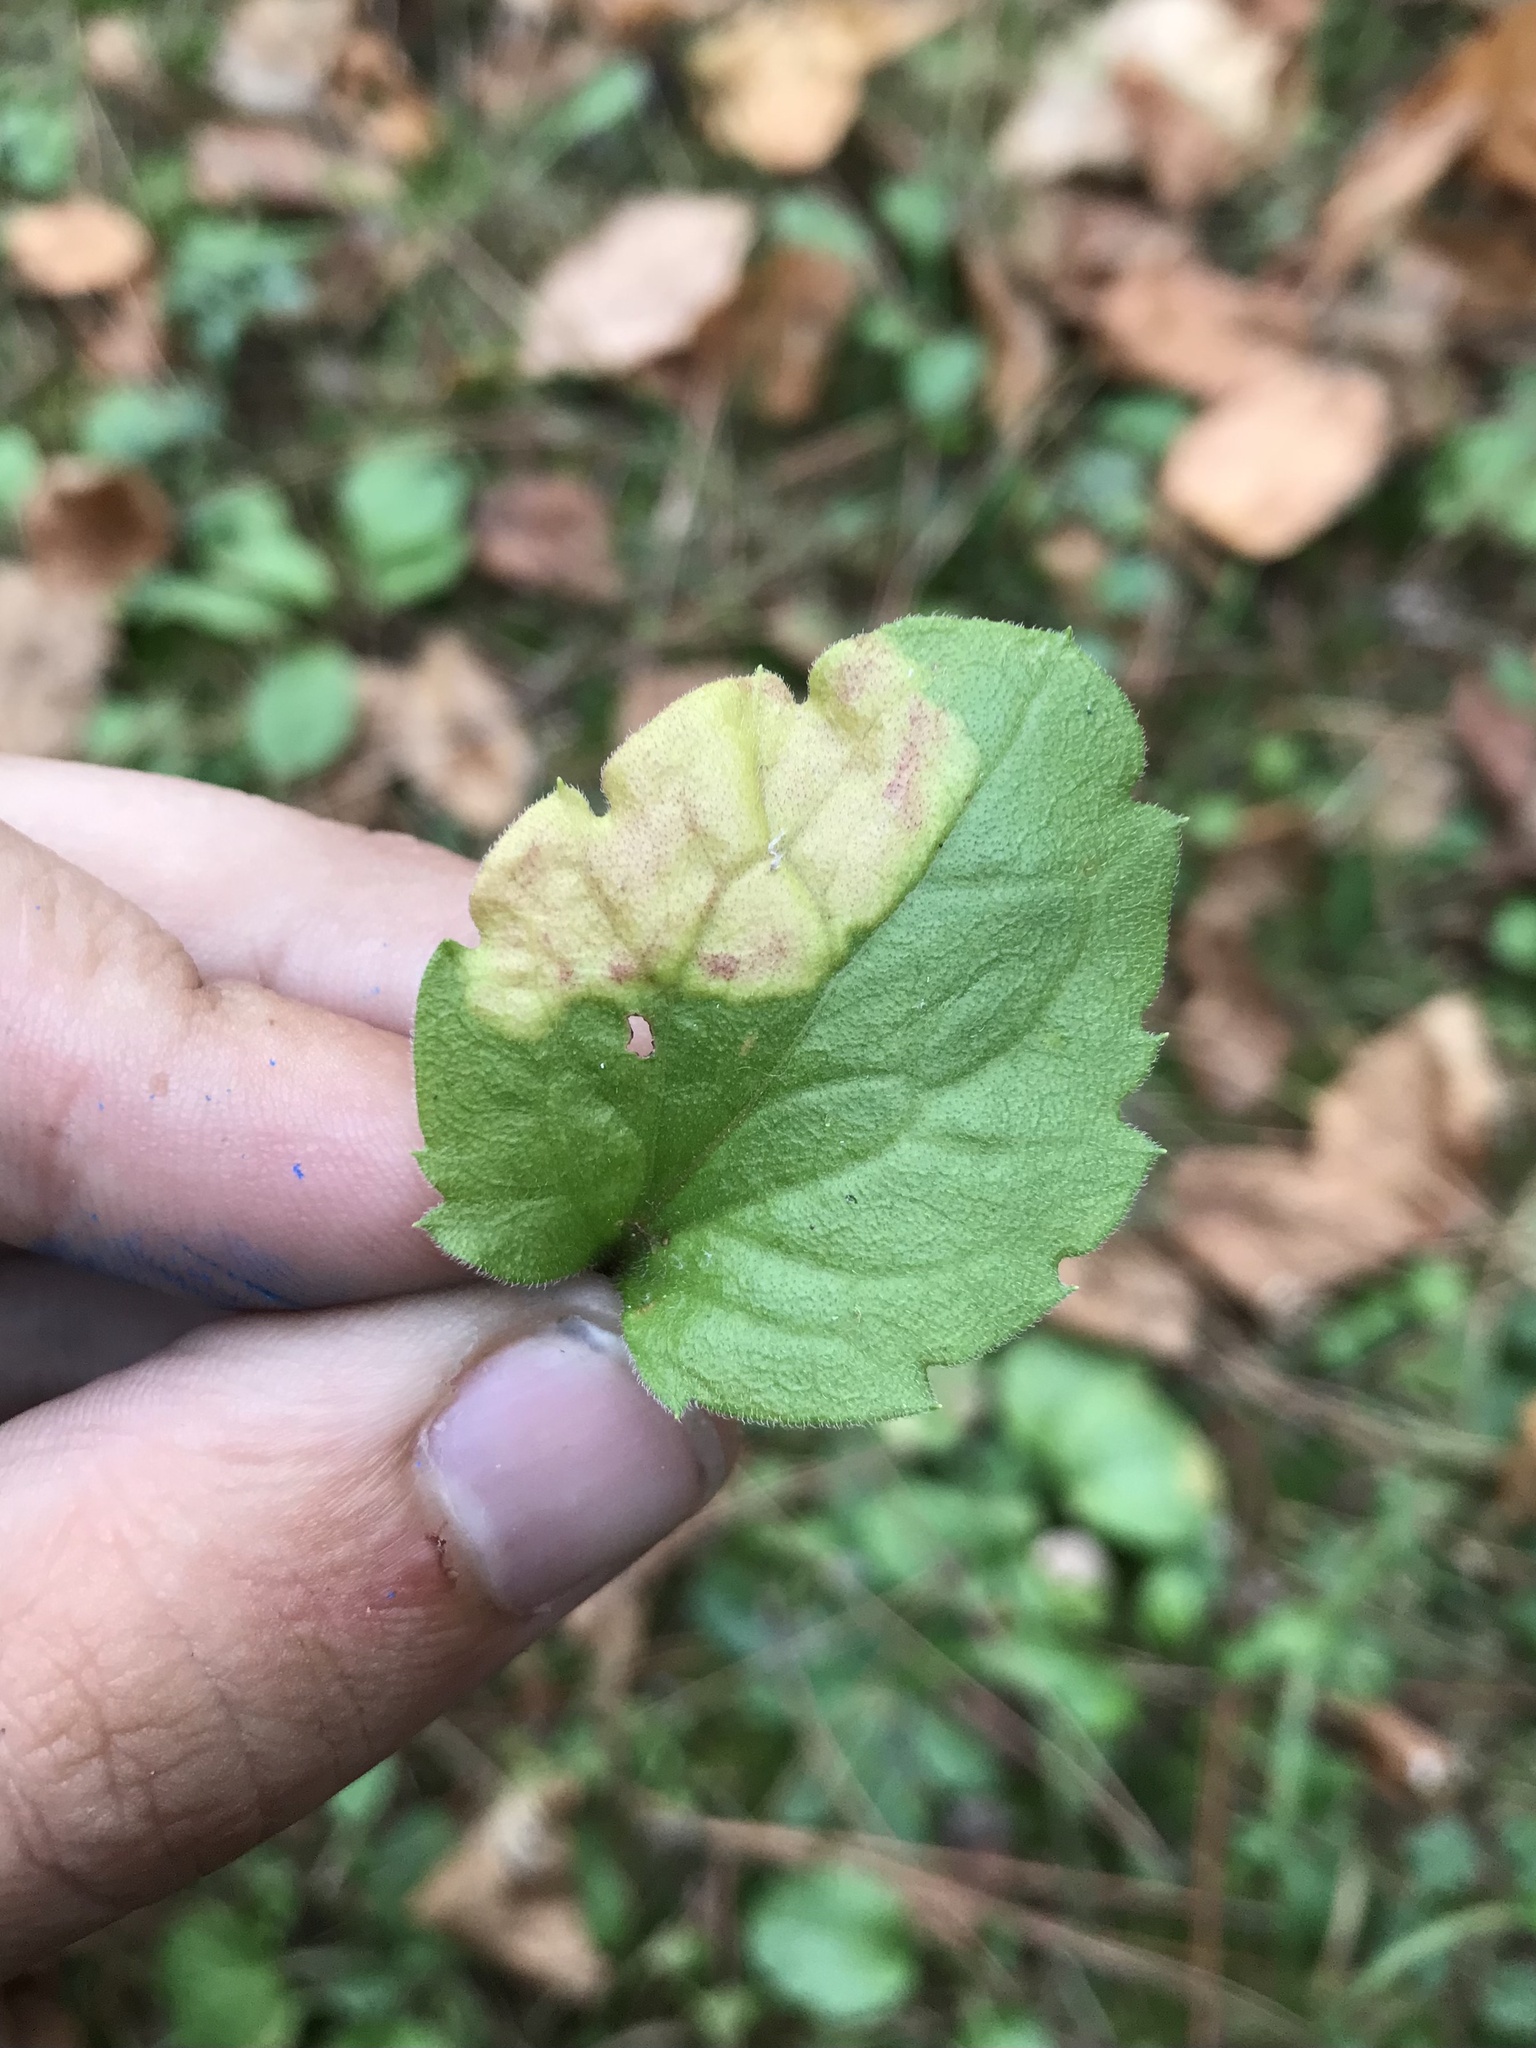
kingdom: Animalia
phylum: Arthropoda
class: Insecta
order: Lepidoptera
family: Gracillariidae
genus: Parectopa
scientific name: Parectopa plantaginisella
